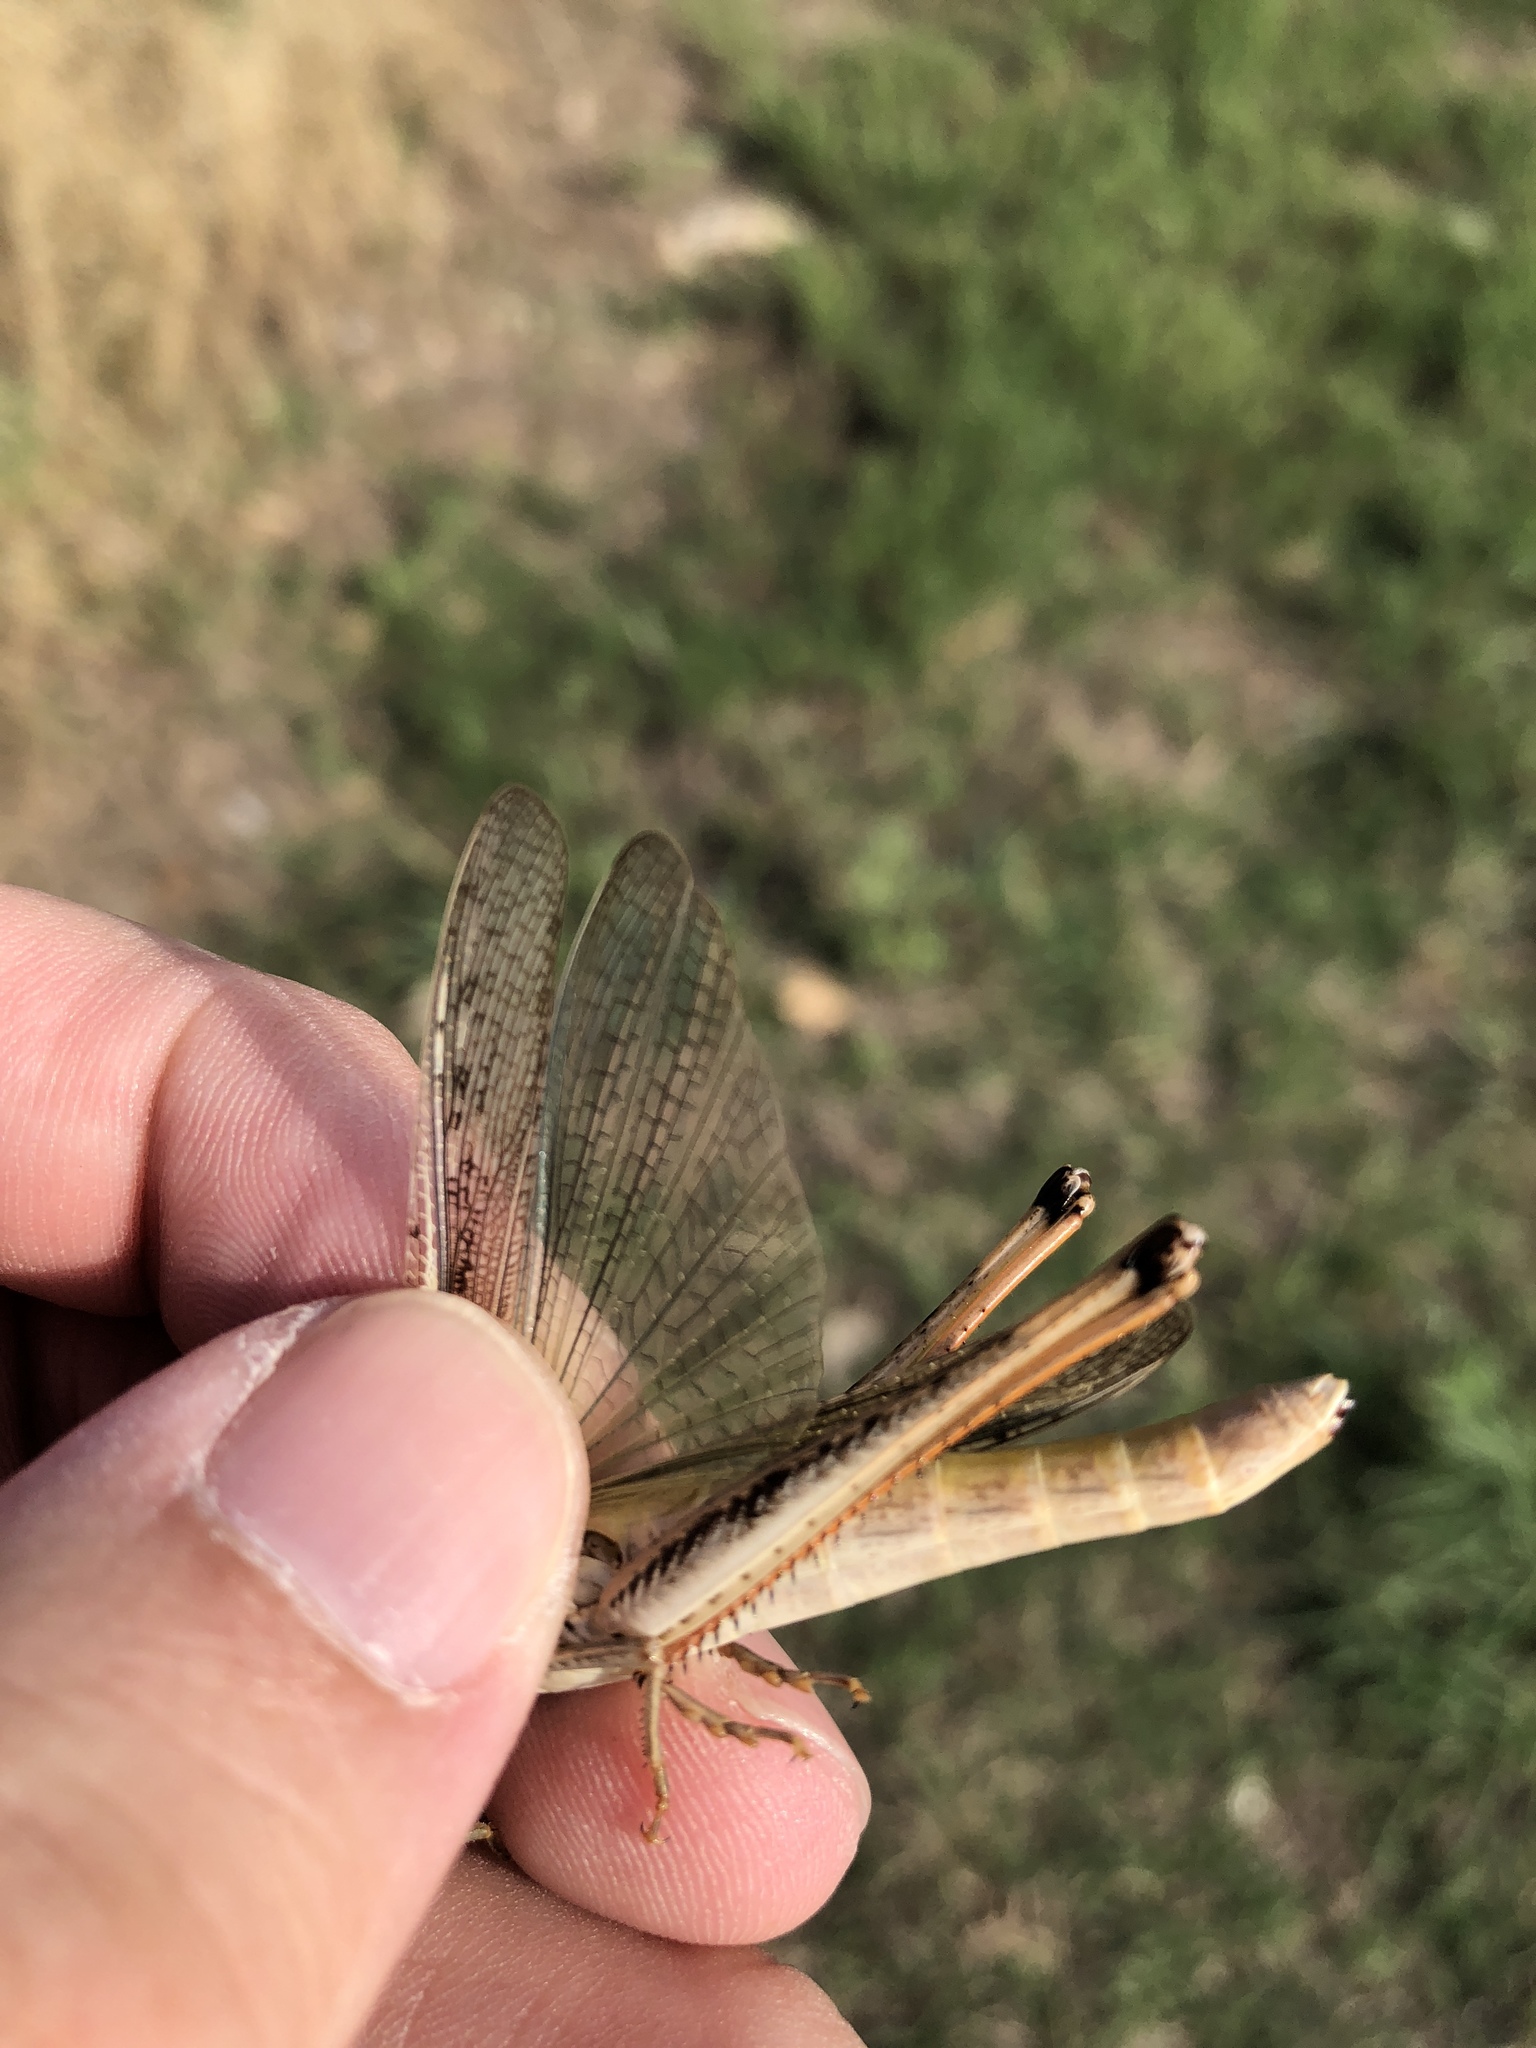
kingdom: Animalia
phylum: Arthropoda
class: Insecta
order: Orthoptera
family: Acrididae
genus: Mermiria
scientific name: Mermiria bivittata
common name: Two-striped mermiria grasshopper
